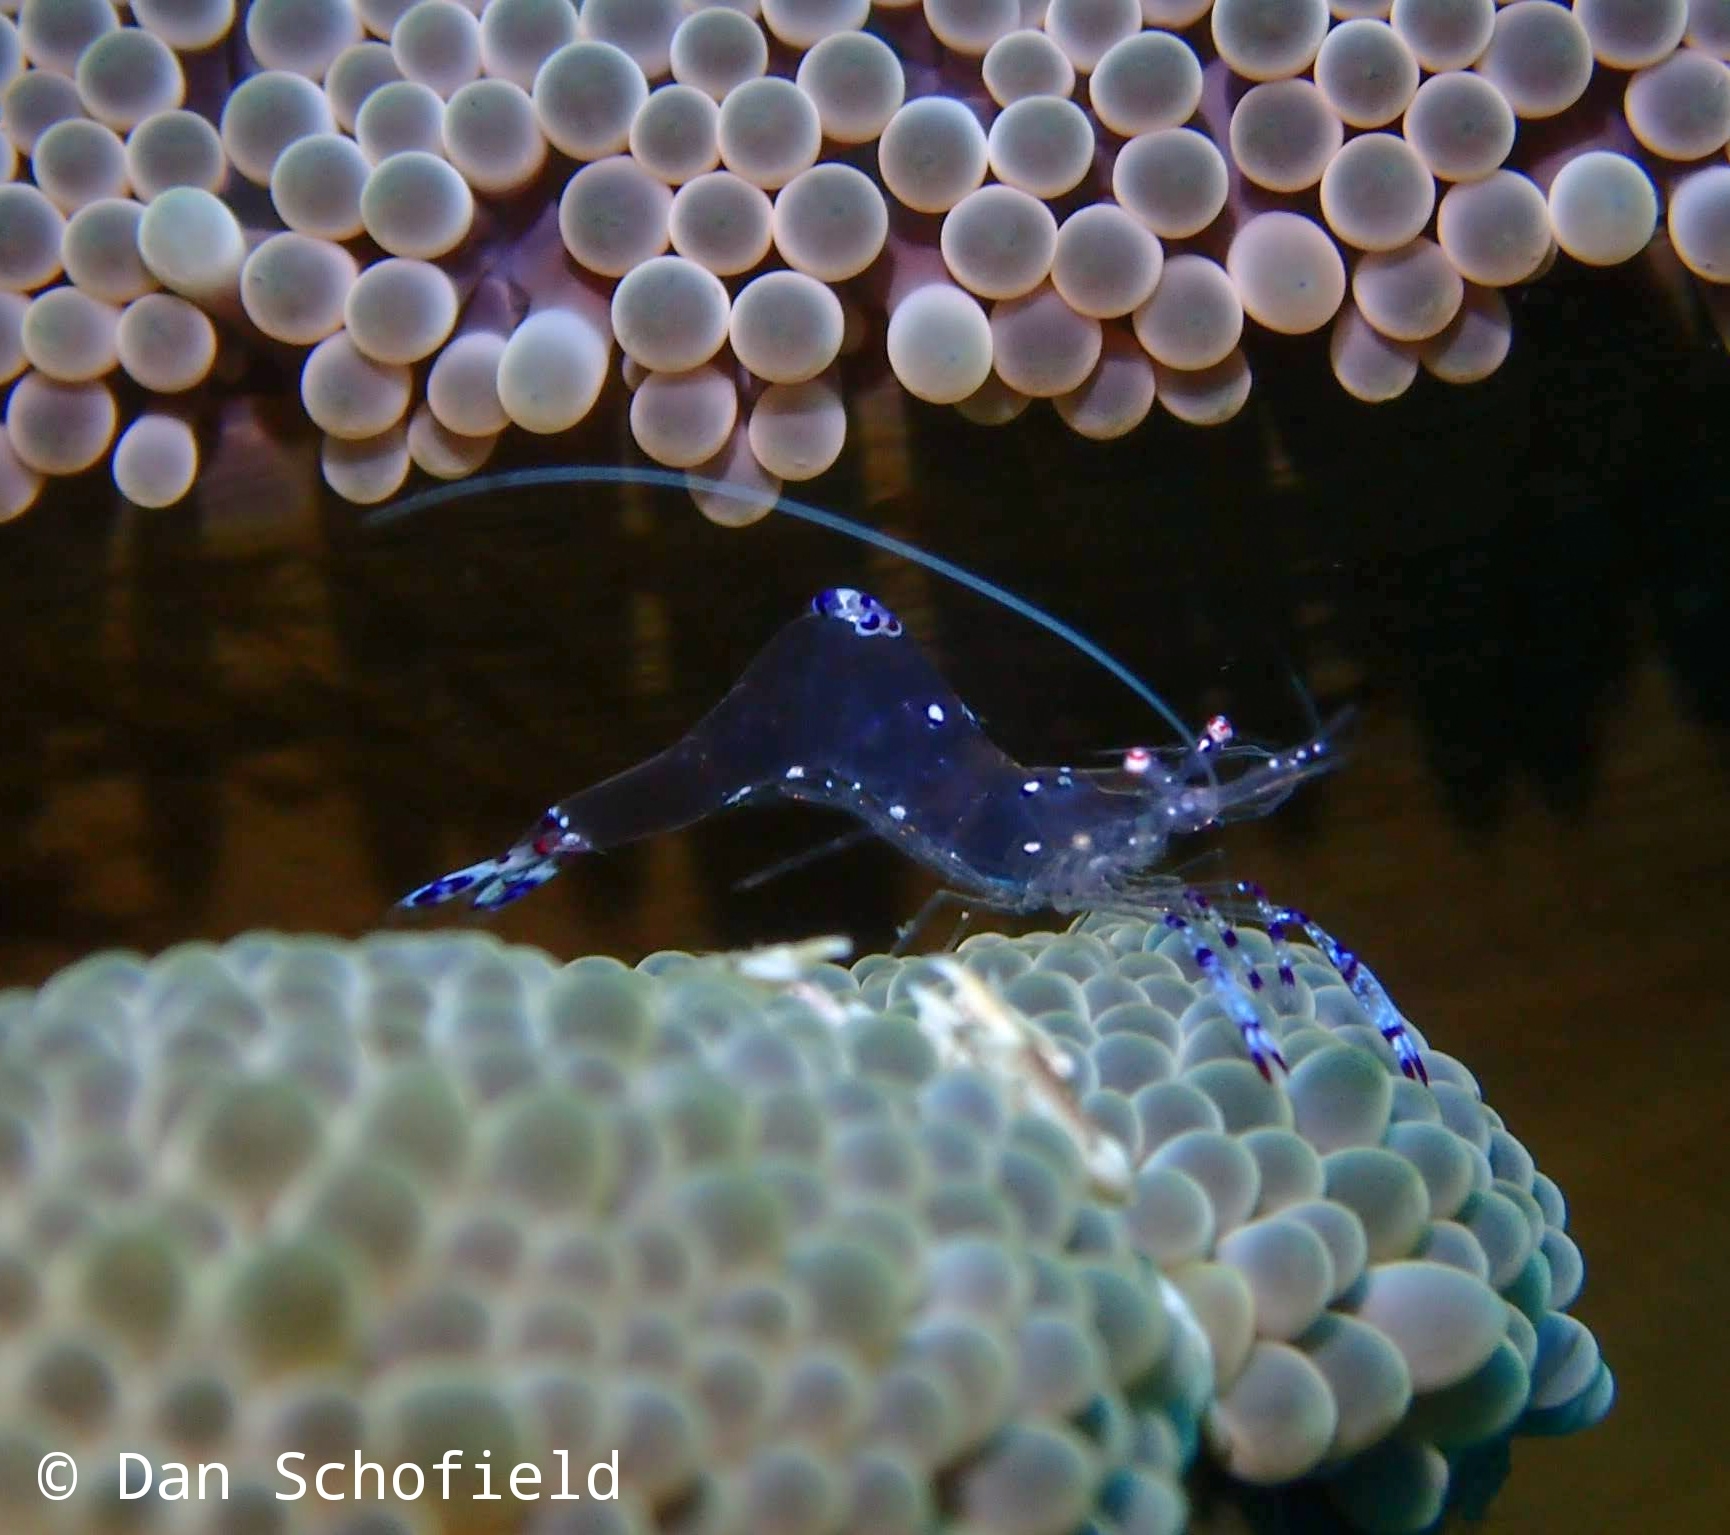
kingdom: Animalia
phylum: Arthropoda
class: Malacostraca
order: Decapoda
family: Palaemonidae
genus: Ancylomenes
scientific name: Ancylomenes sarasvati
